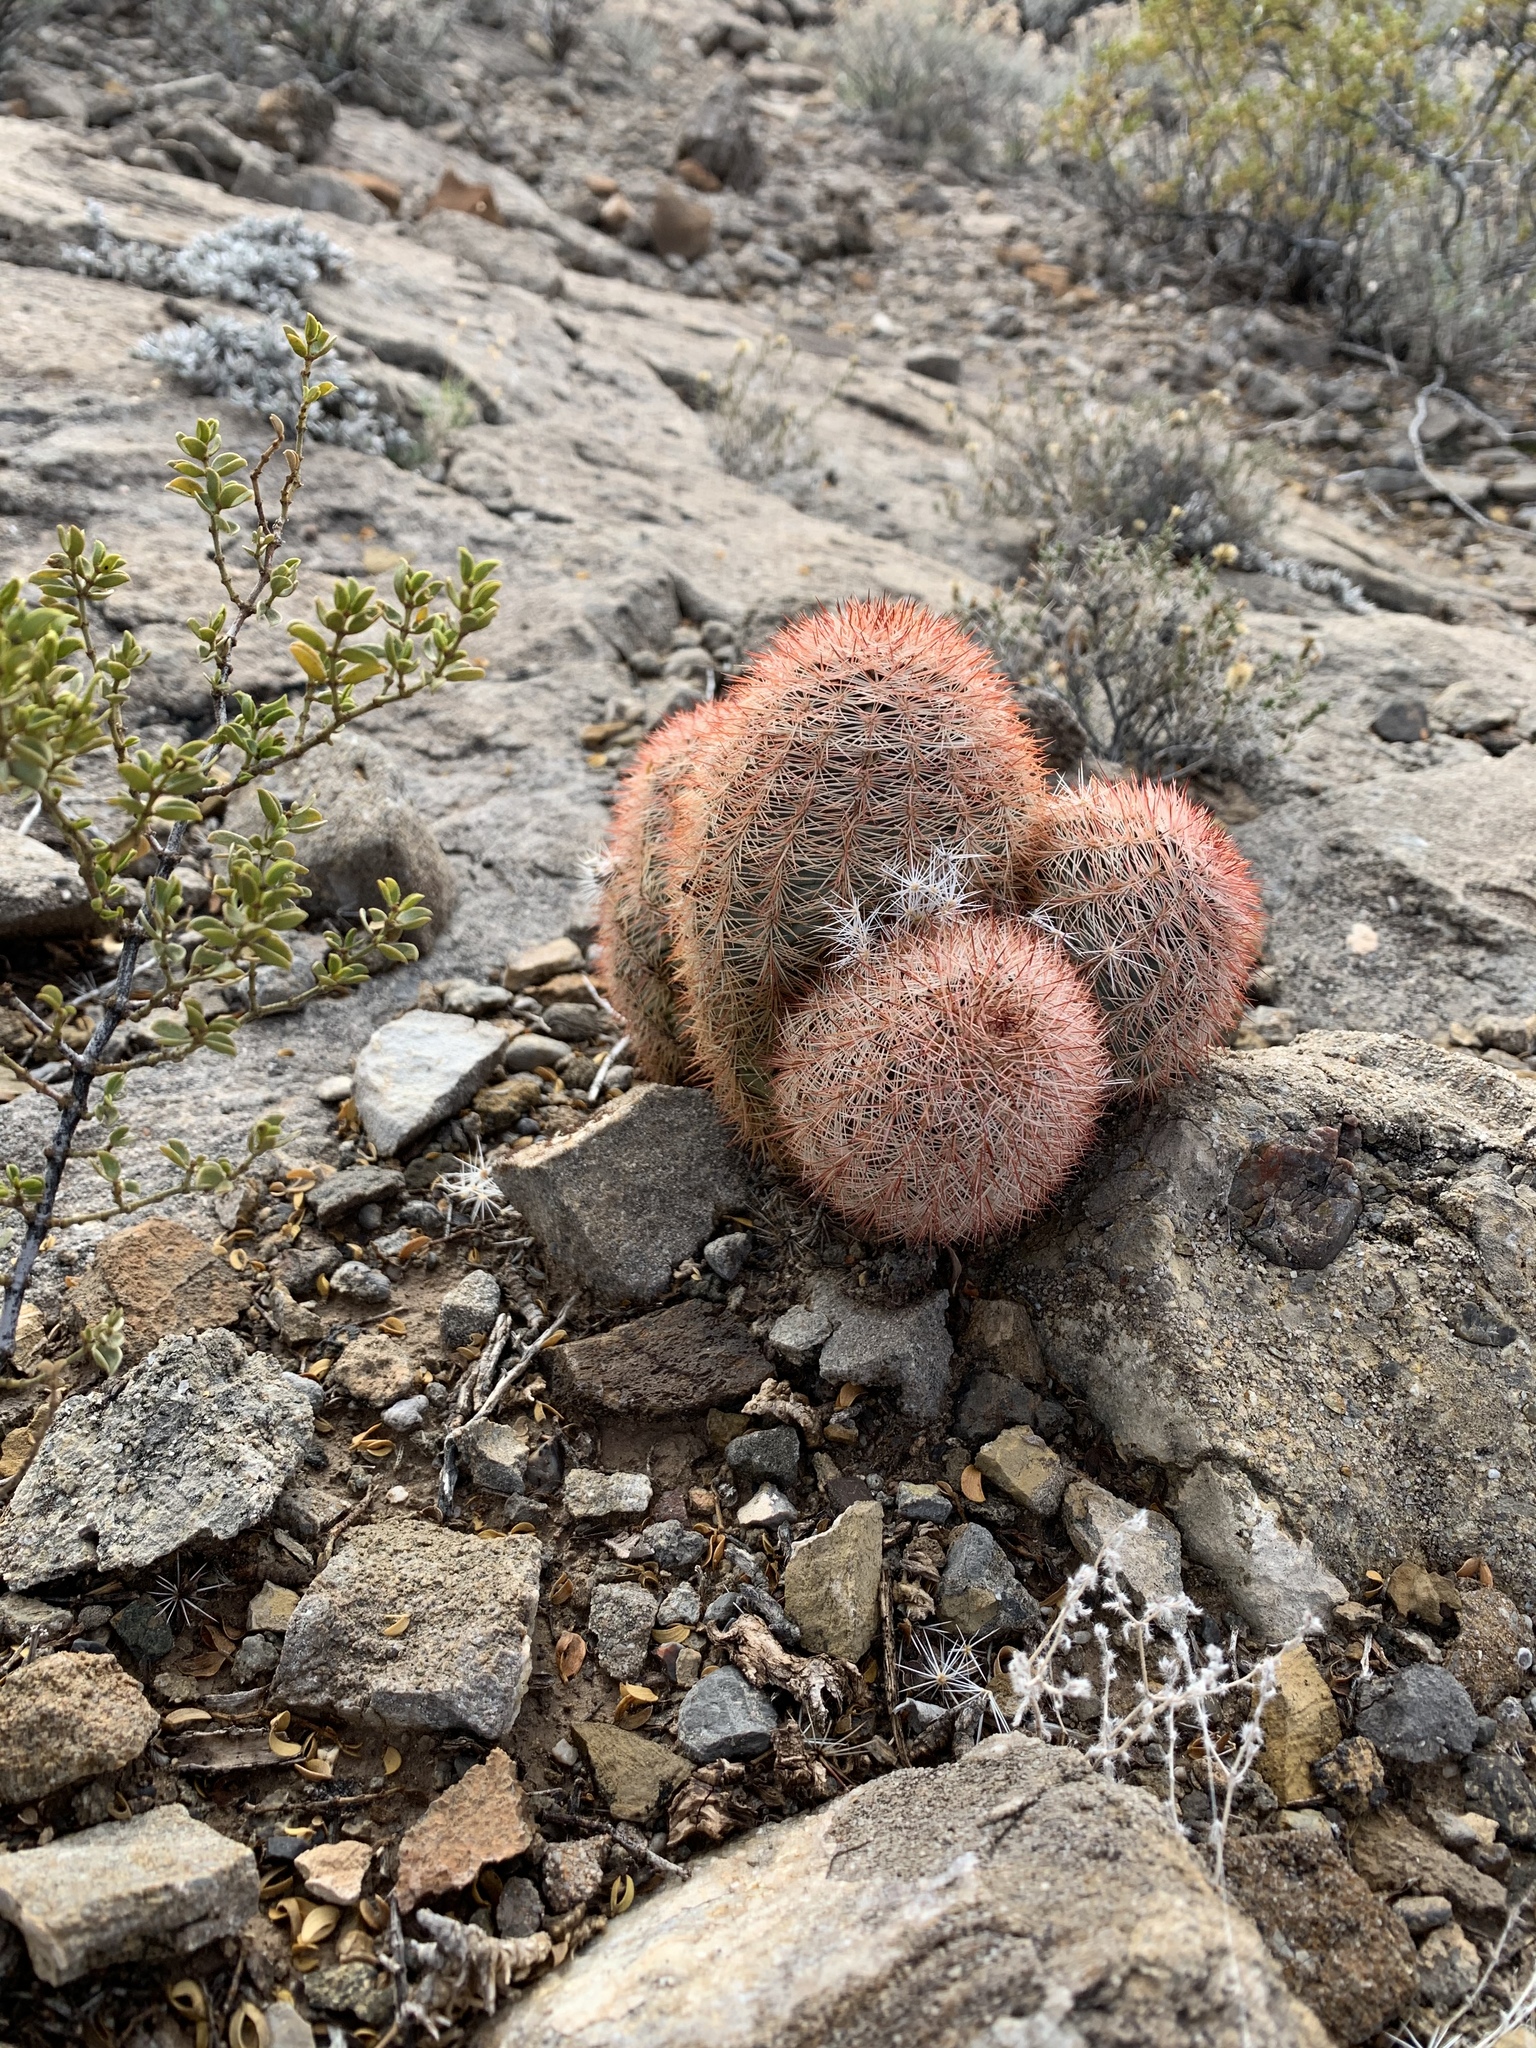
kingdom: Plantae
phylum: Tracheophyta
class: Magnoliopsida
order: Caryophyllales
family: Cactaceae
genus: Echinocereus
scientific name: Echinocereus dasyacanthus
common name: Spiny hedgehog cactus
